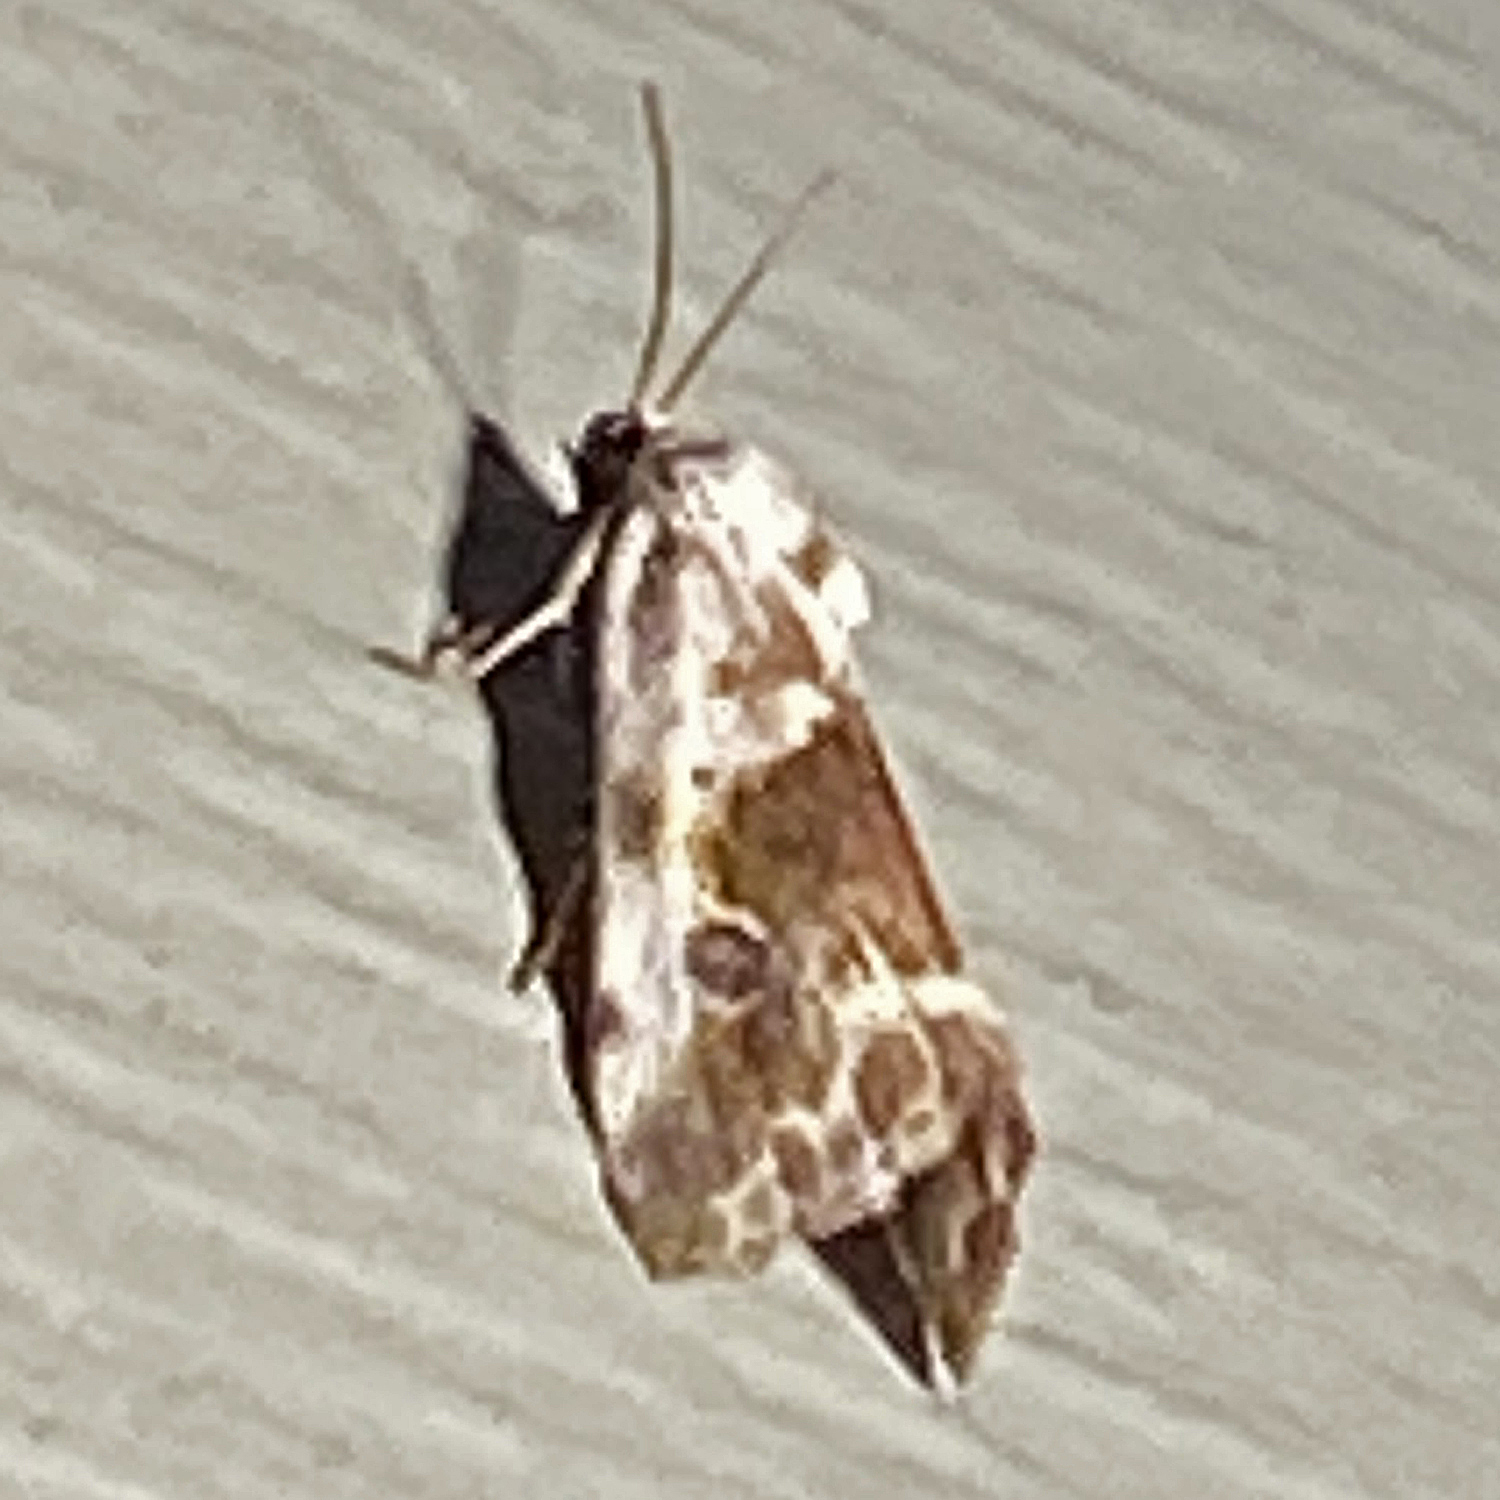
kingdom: Animalia
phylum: Arthropoda
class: Insecta
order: Lepidoptera
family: Noctuidae
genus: Acontia
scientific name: Acontia candefacta
